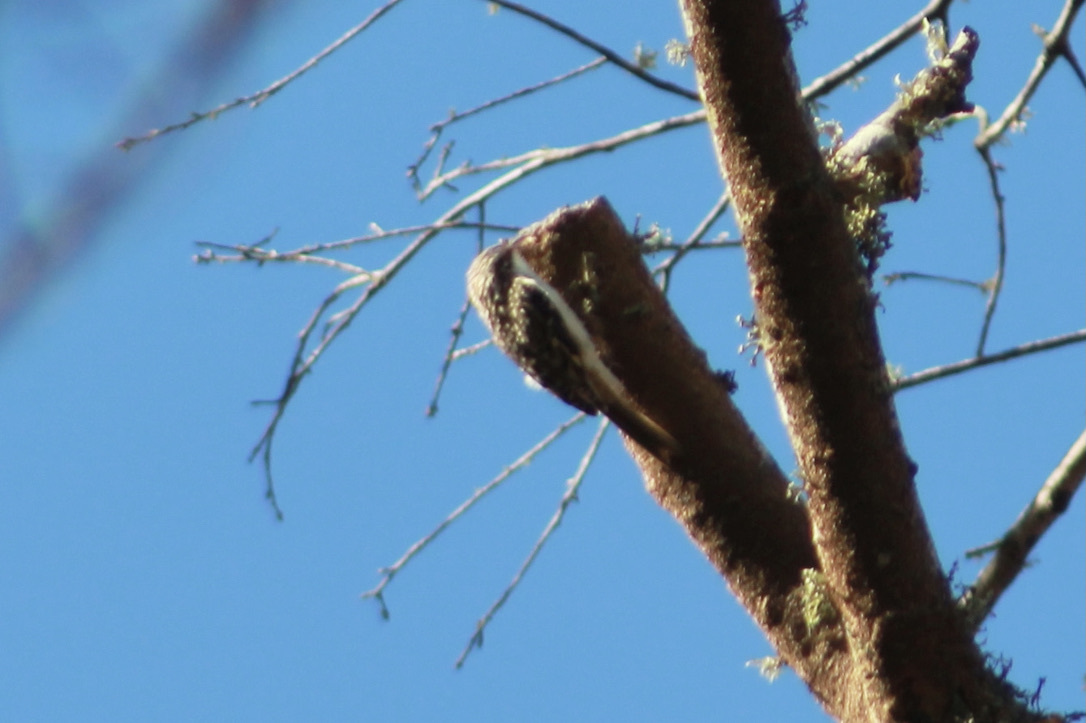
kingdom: Animalia
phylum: Chordata
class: Aves
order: Passeriformes
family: Certhiidae
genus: Certhia
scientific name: Certhia americana
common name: Brown creeper
